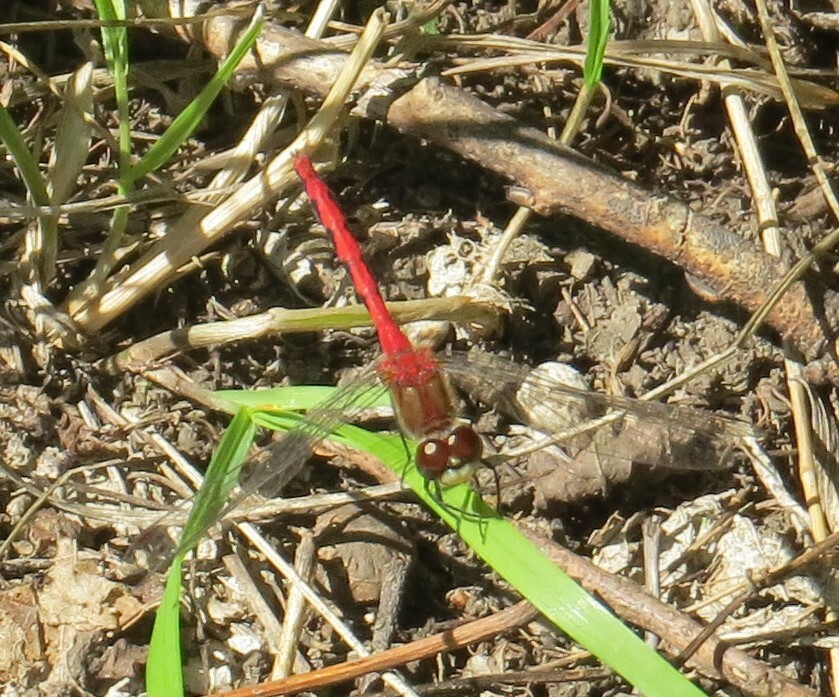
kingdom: Animalia
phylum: Arthropoda
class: Insecta
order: Odonata
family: Libellulidae
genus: Sympetrum
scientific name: Sympetrum obtrusum
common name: White-faced meadowhawk
